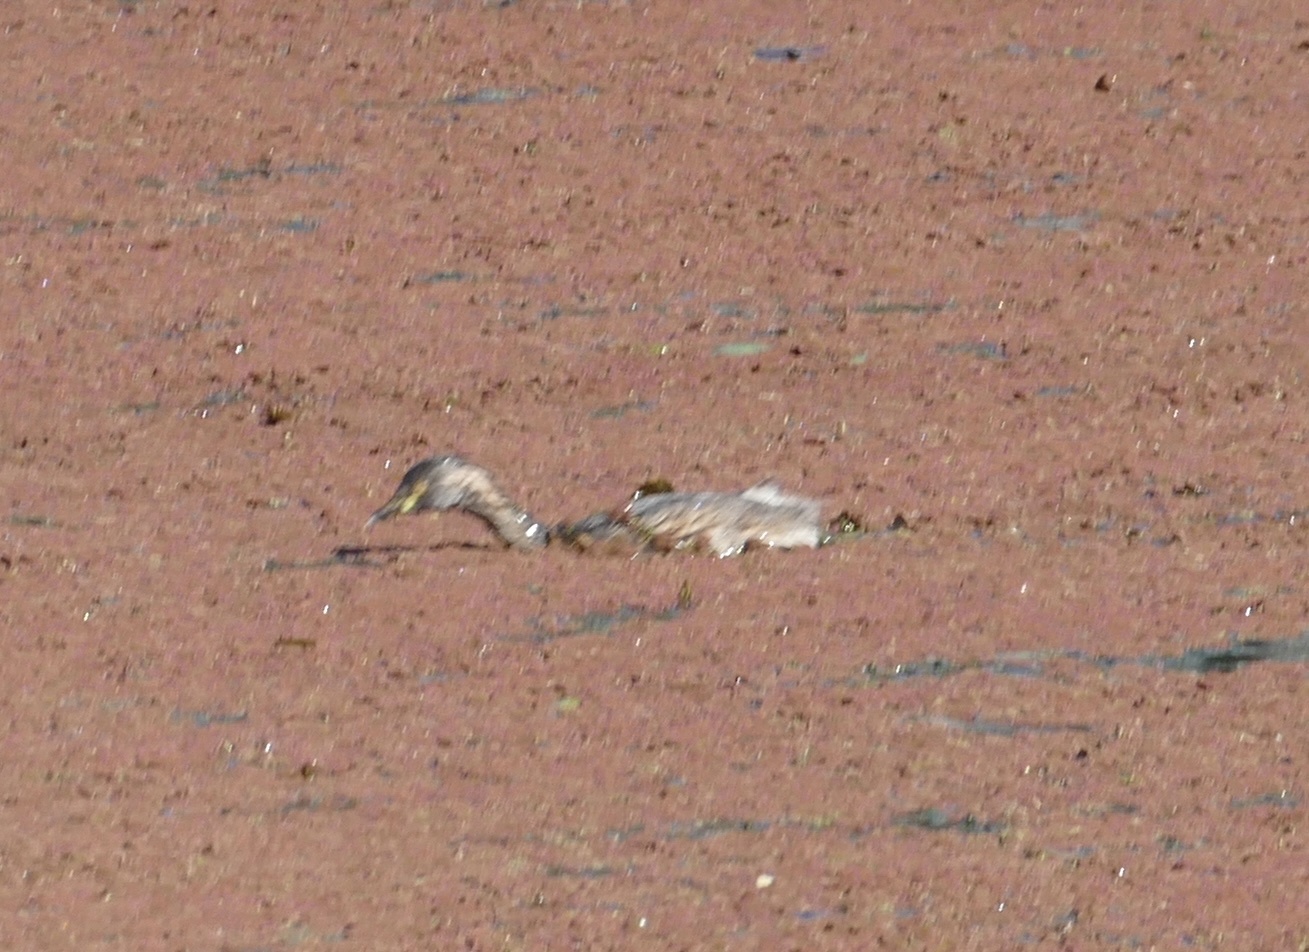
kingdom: Animalia
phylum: Chordata
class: Aves
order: Podicipediformes
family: Podicipedidae
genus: Tachybaptus
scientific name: Tachybaptus novaehollandiae
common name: Australasian grebe
